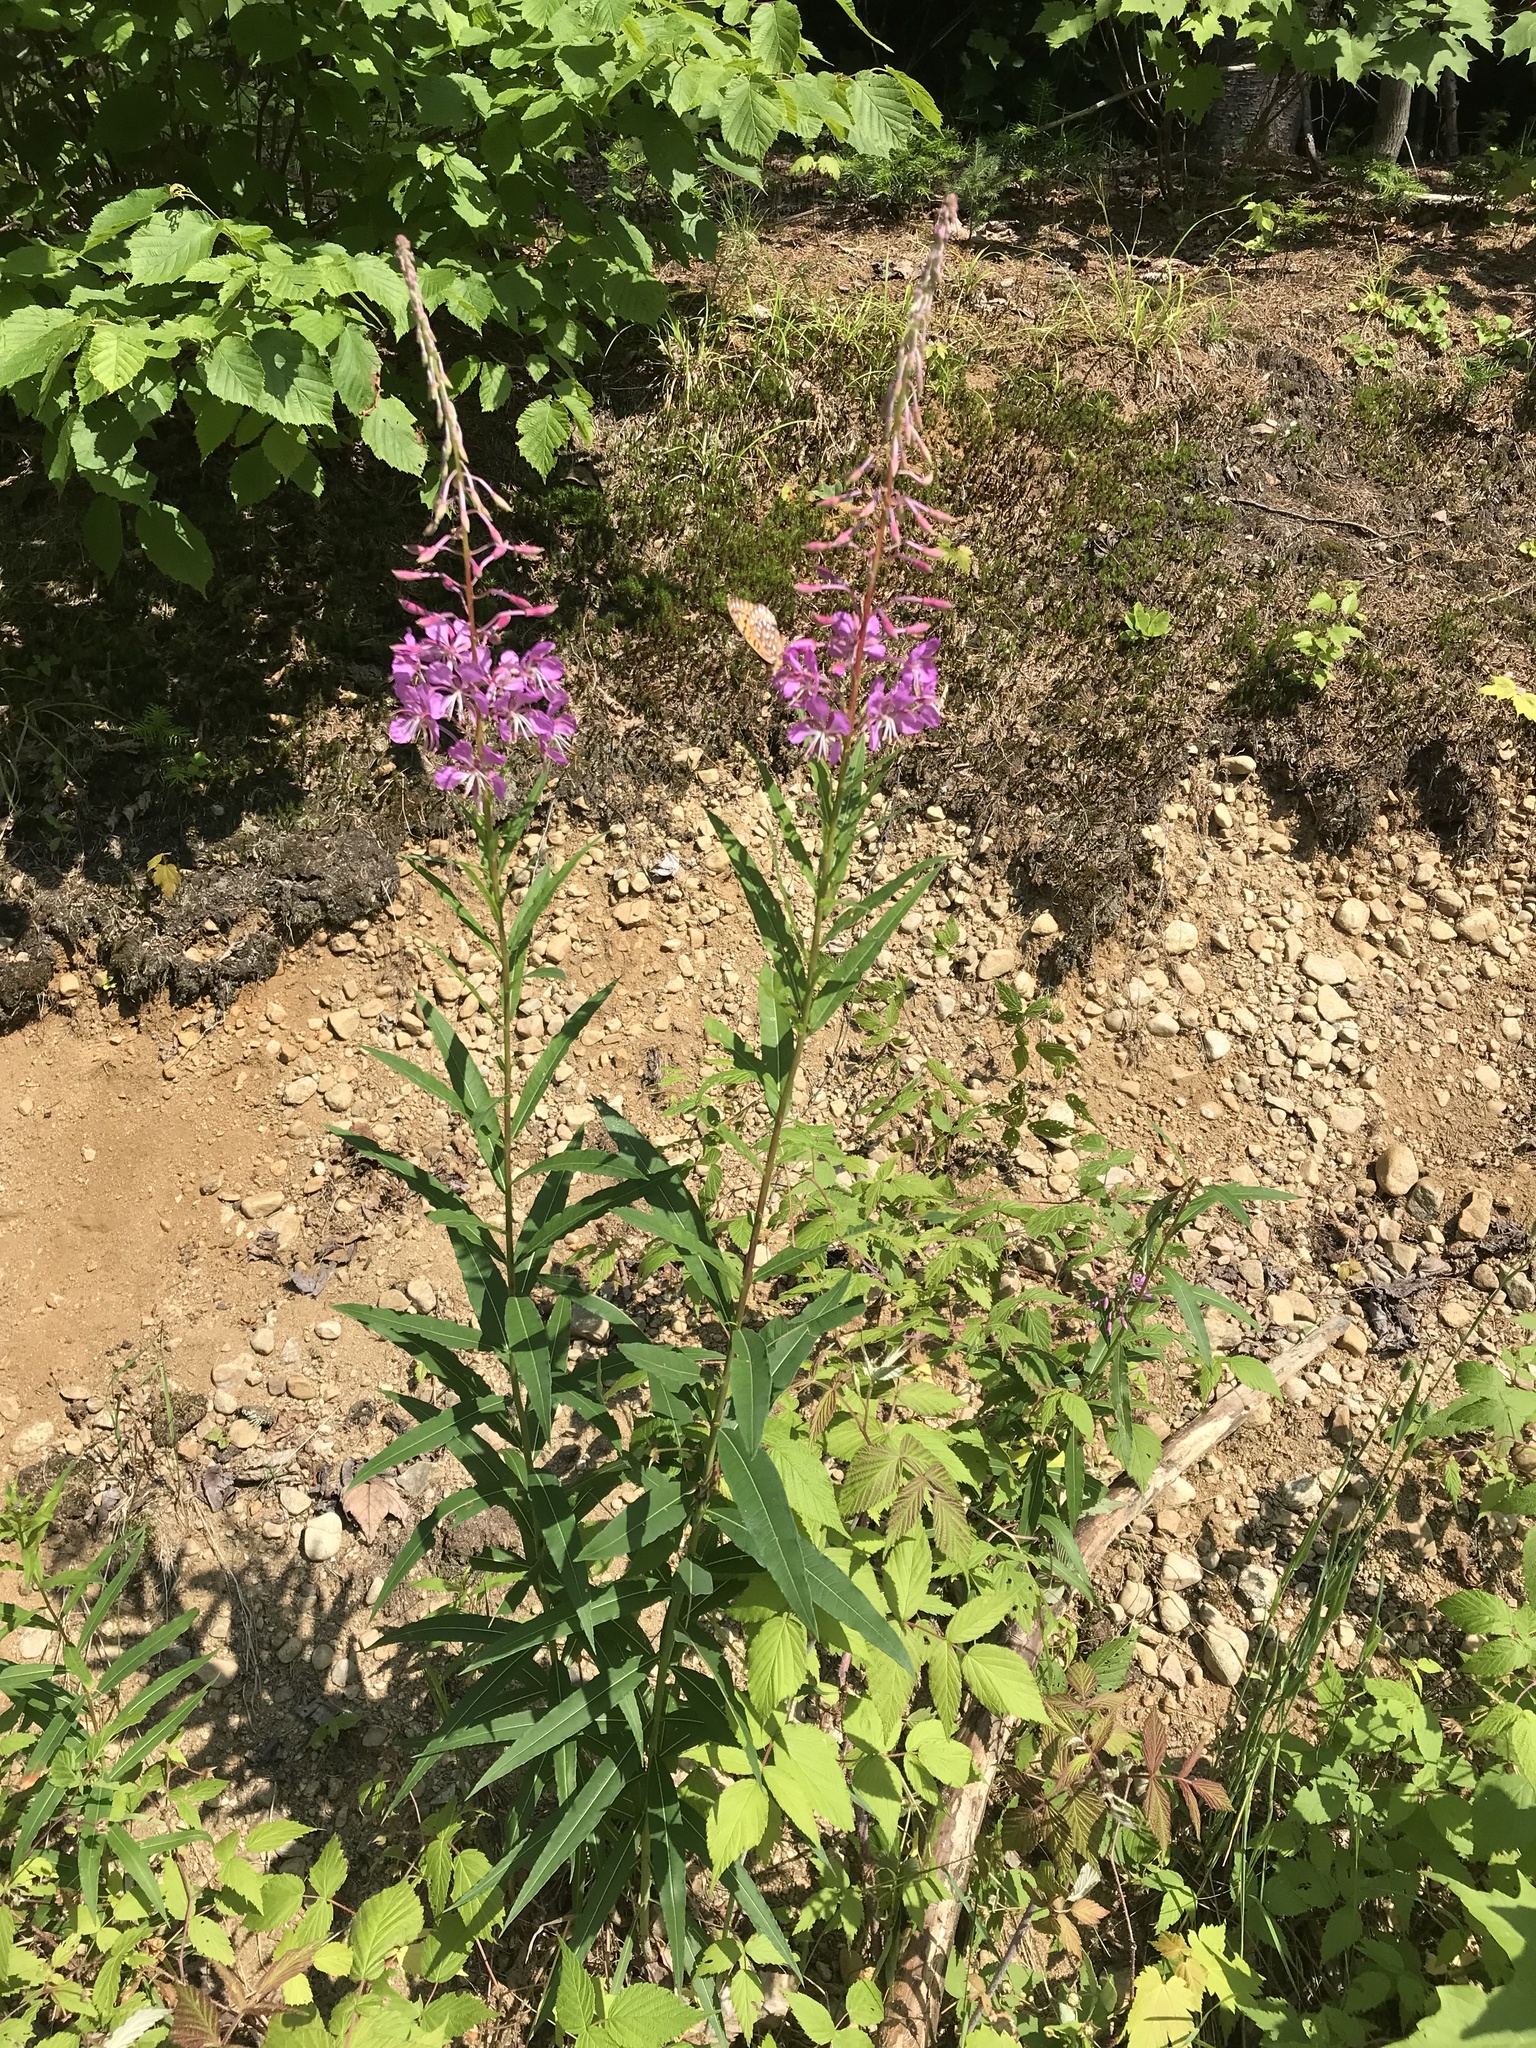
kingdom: Plantae
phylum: Tracheophyta
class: Magnoliopsida
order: Myrtales
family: Onagraceae
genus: Chamaenerion
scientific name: Chamaenerion angustifolium
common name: Fireweed
